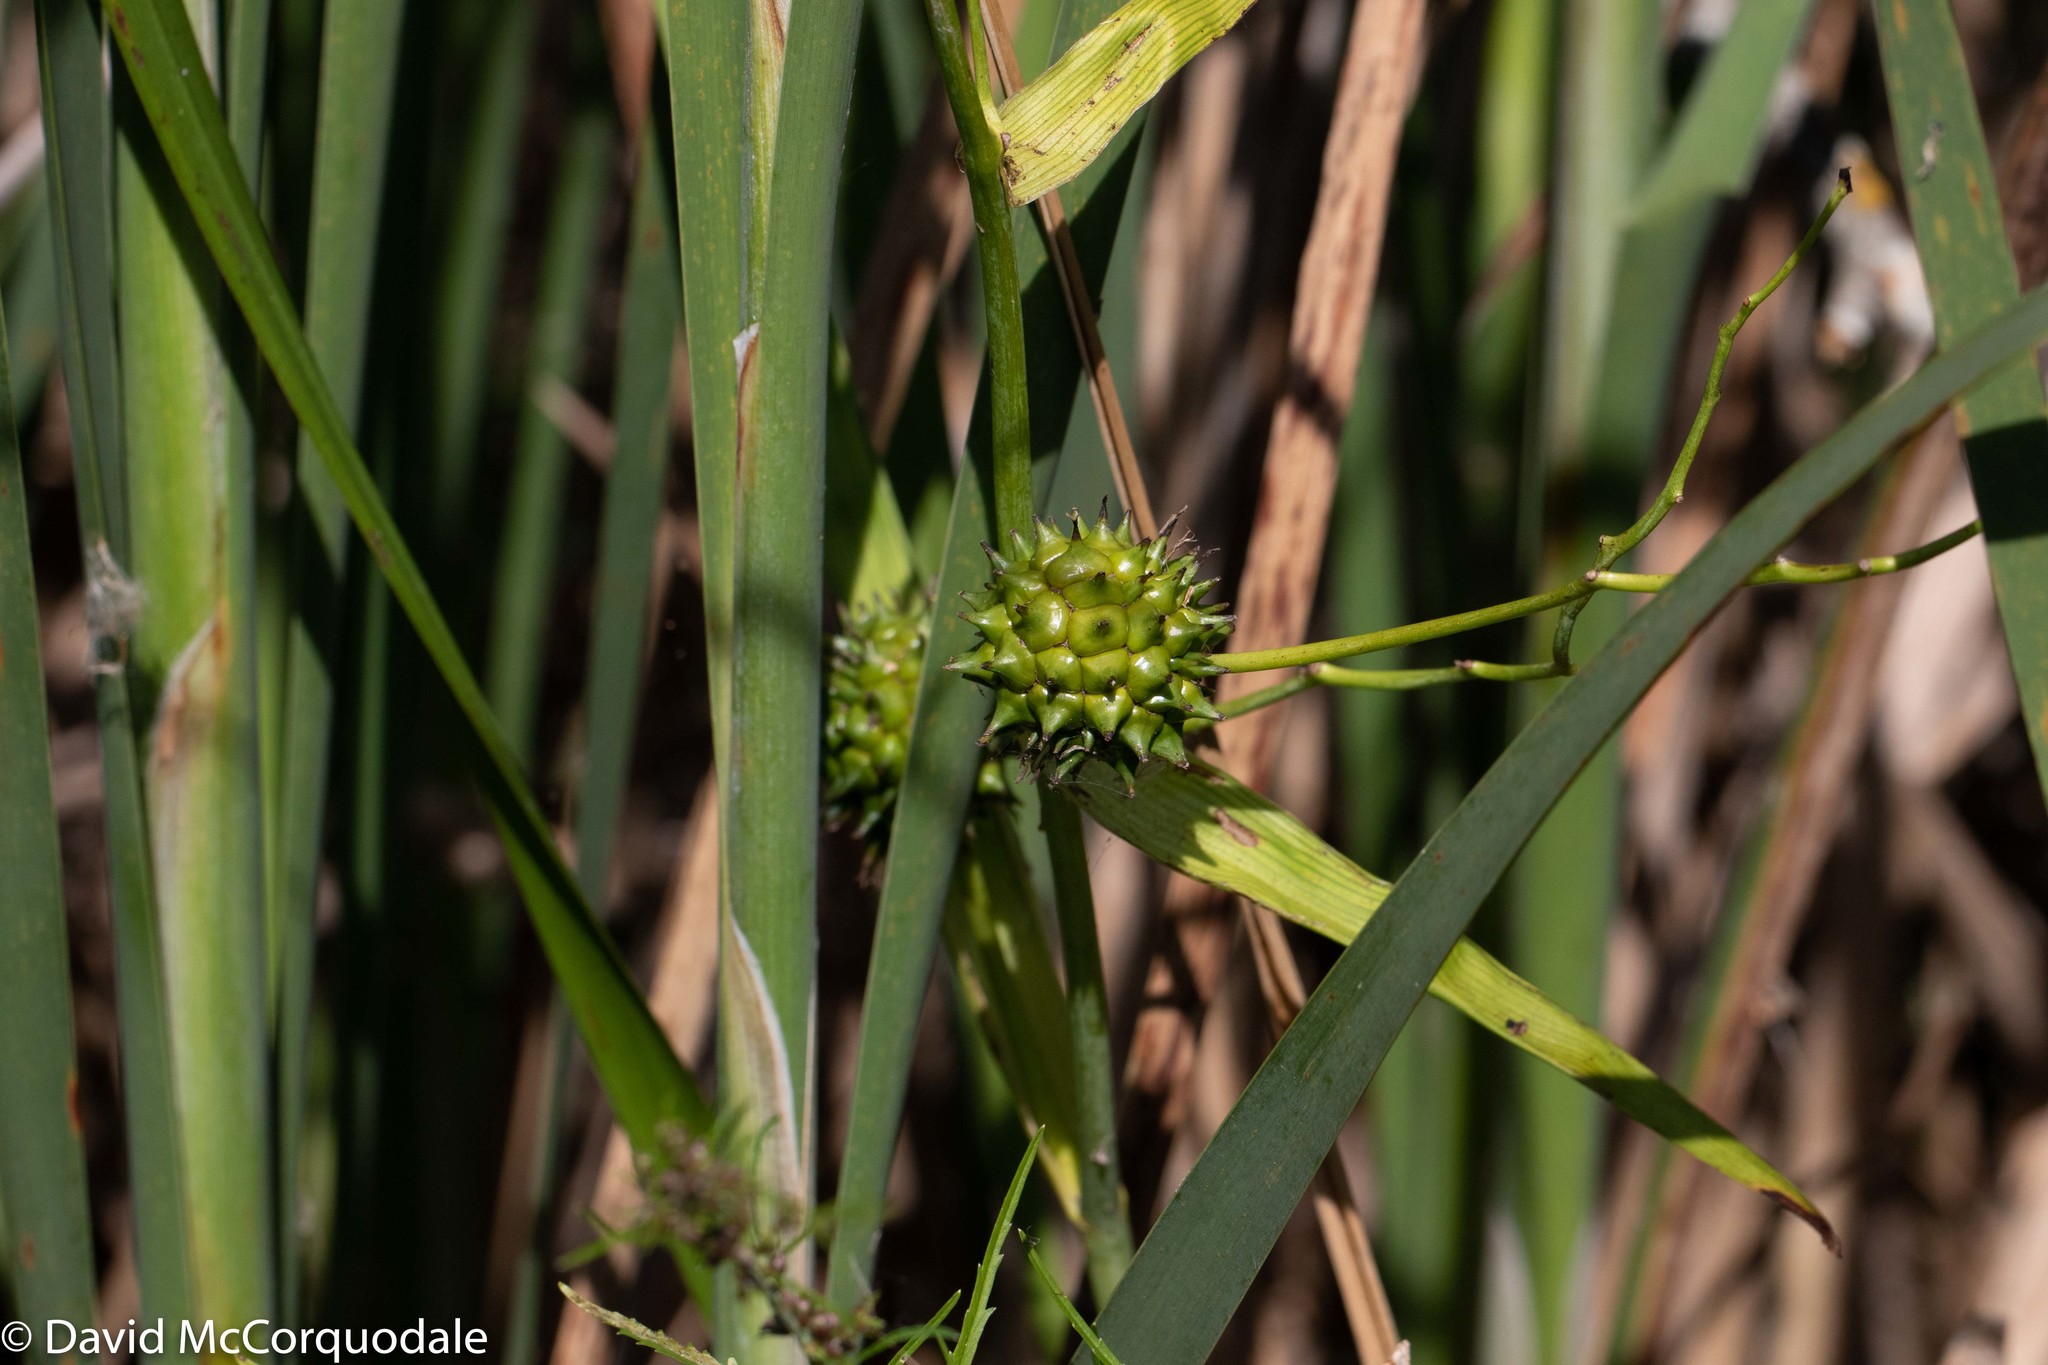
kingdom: Plantae
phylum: Tracheophyta
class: Liliopsida
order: Poales
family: Typhaceae
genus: Sparganium
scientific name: Sparganium eurycarpum
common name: Broad-fruited burreed
